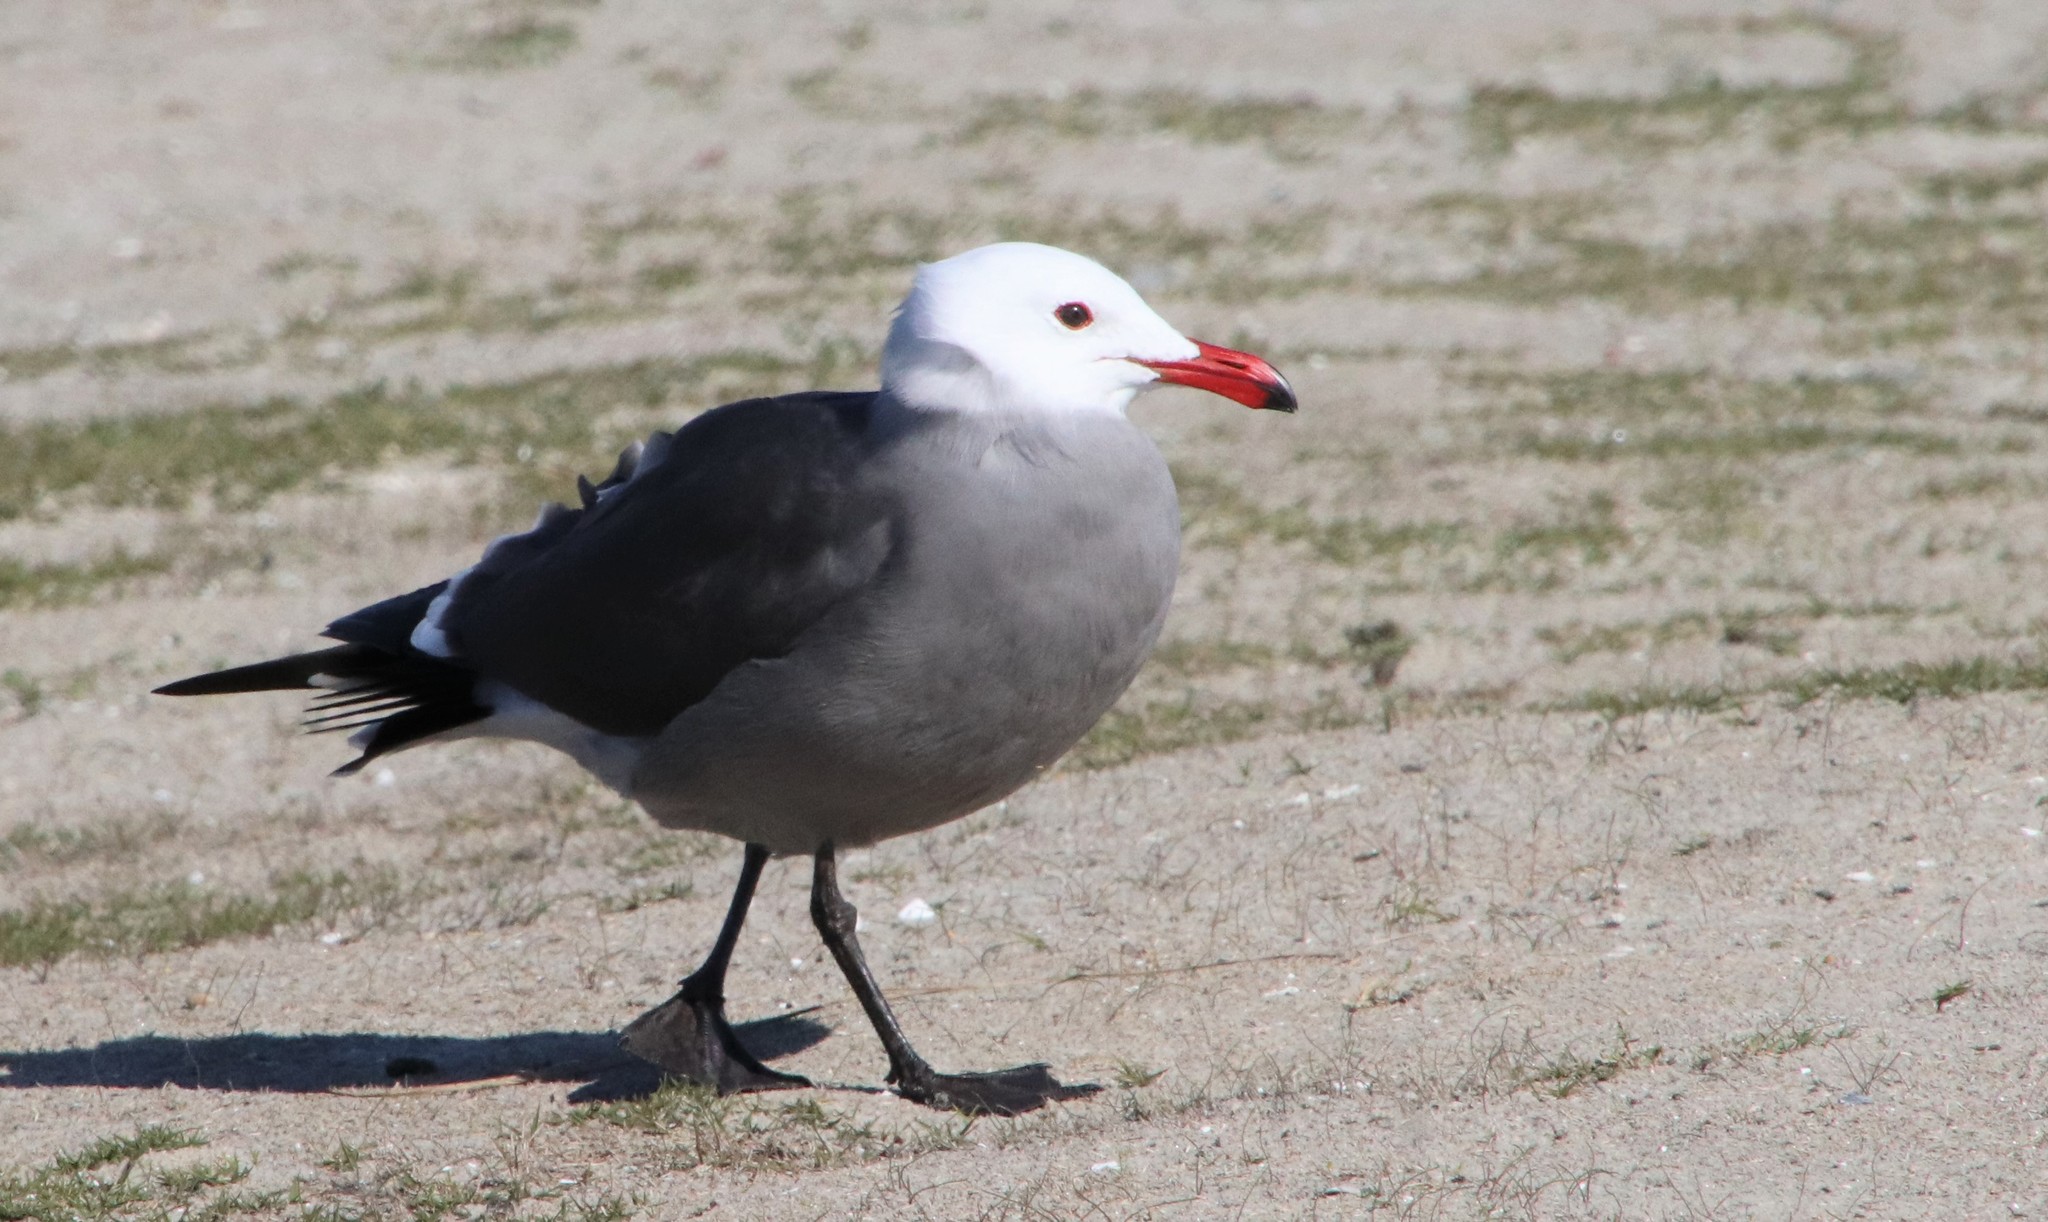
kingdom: Animalia
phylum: Chordata
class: Aves
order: Charadriiformes
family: Laridae
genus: Larus
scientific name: Larus heermanni
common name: Heermann's gull
